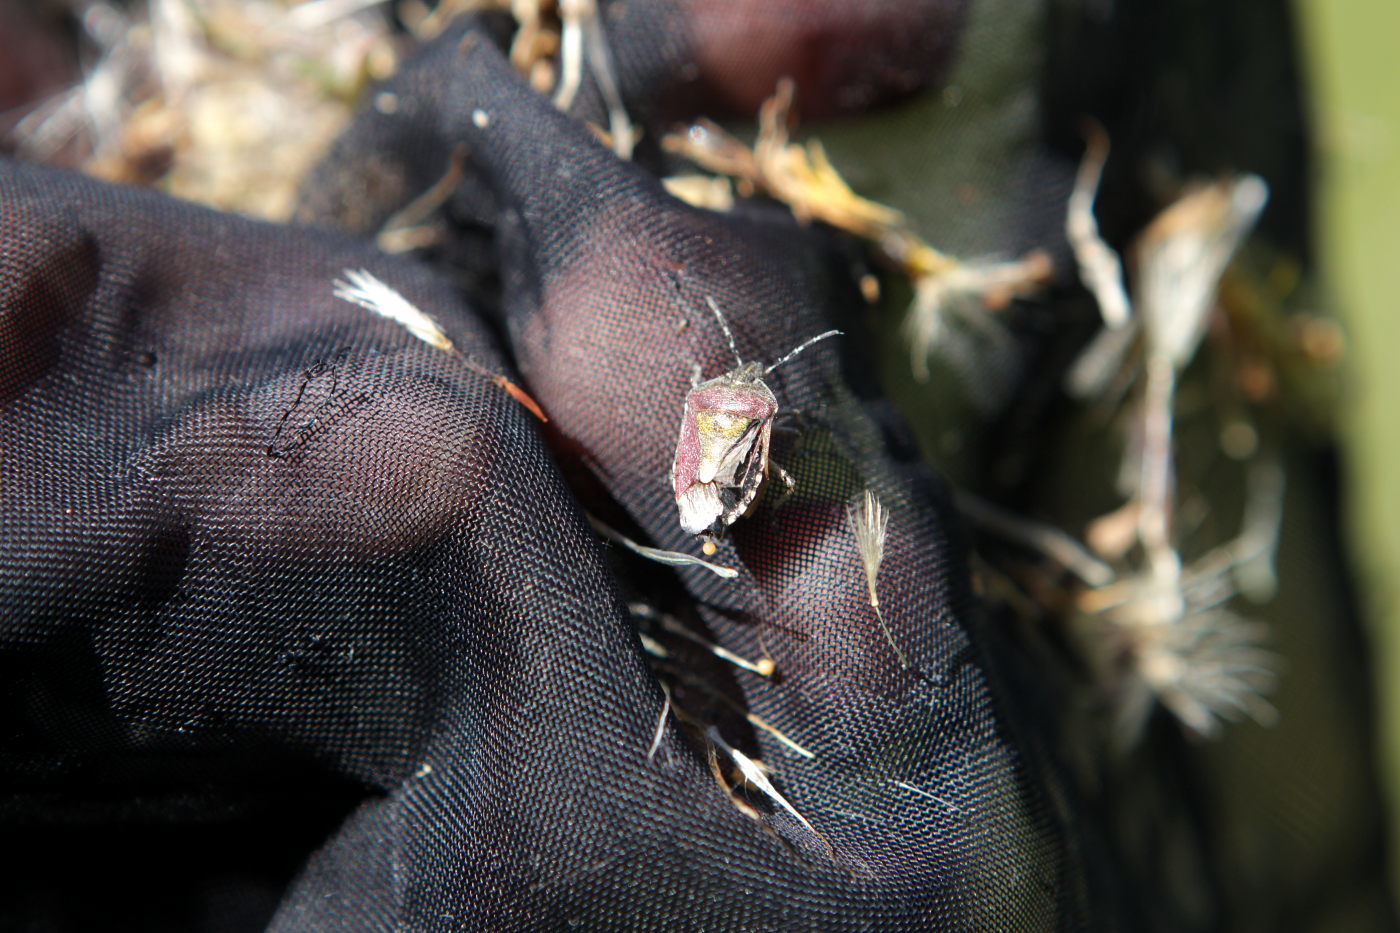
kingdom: Animalia
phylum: Arthropoda
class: Insecta
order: Hemiptera
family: Pentatomidae
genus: Dolycoris
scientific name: Dolycoris baccarum
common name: Sloe bug
